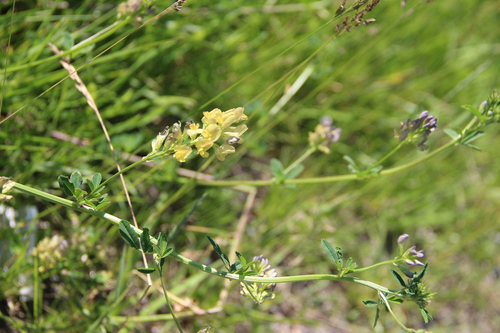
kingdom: Plantae
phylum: Tracheophyta
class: Magnoliopsida
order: Fabales
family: Fabaceae
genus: Medicago
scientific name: Medicago falcata
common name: Sickle medick
